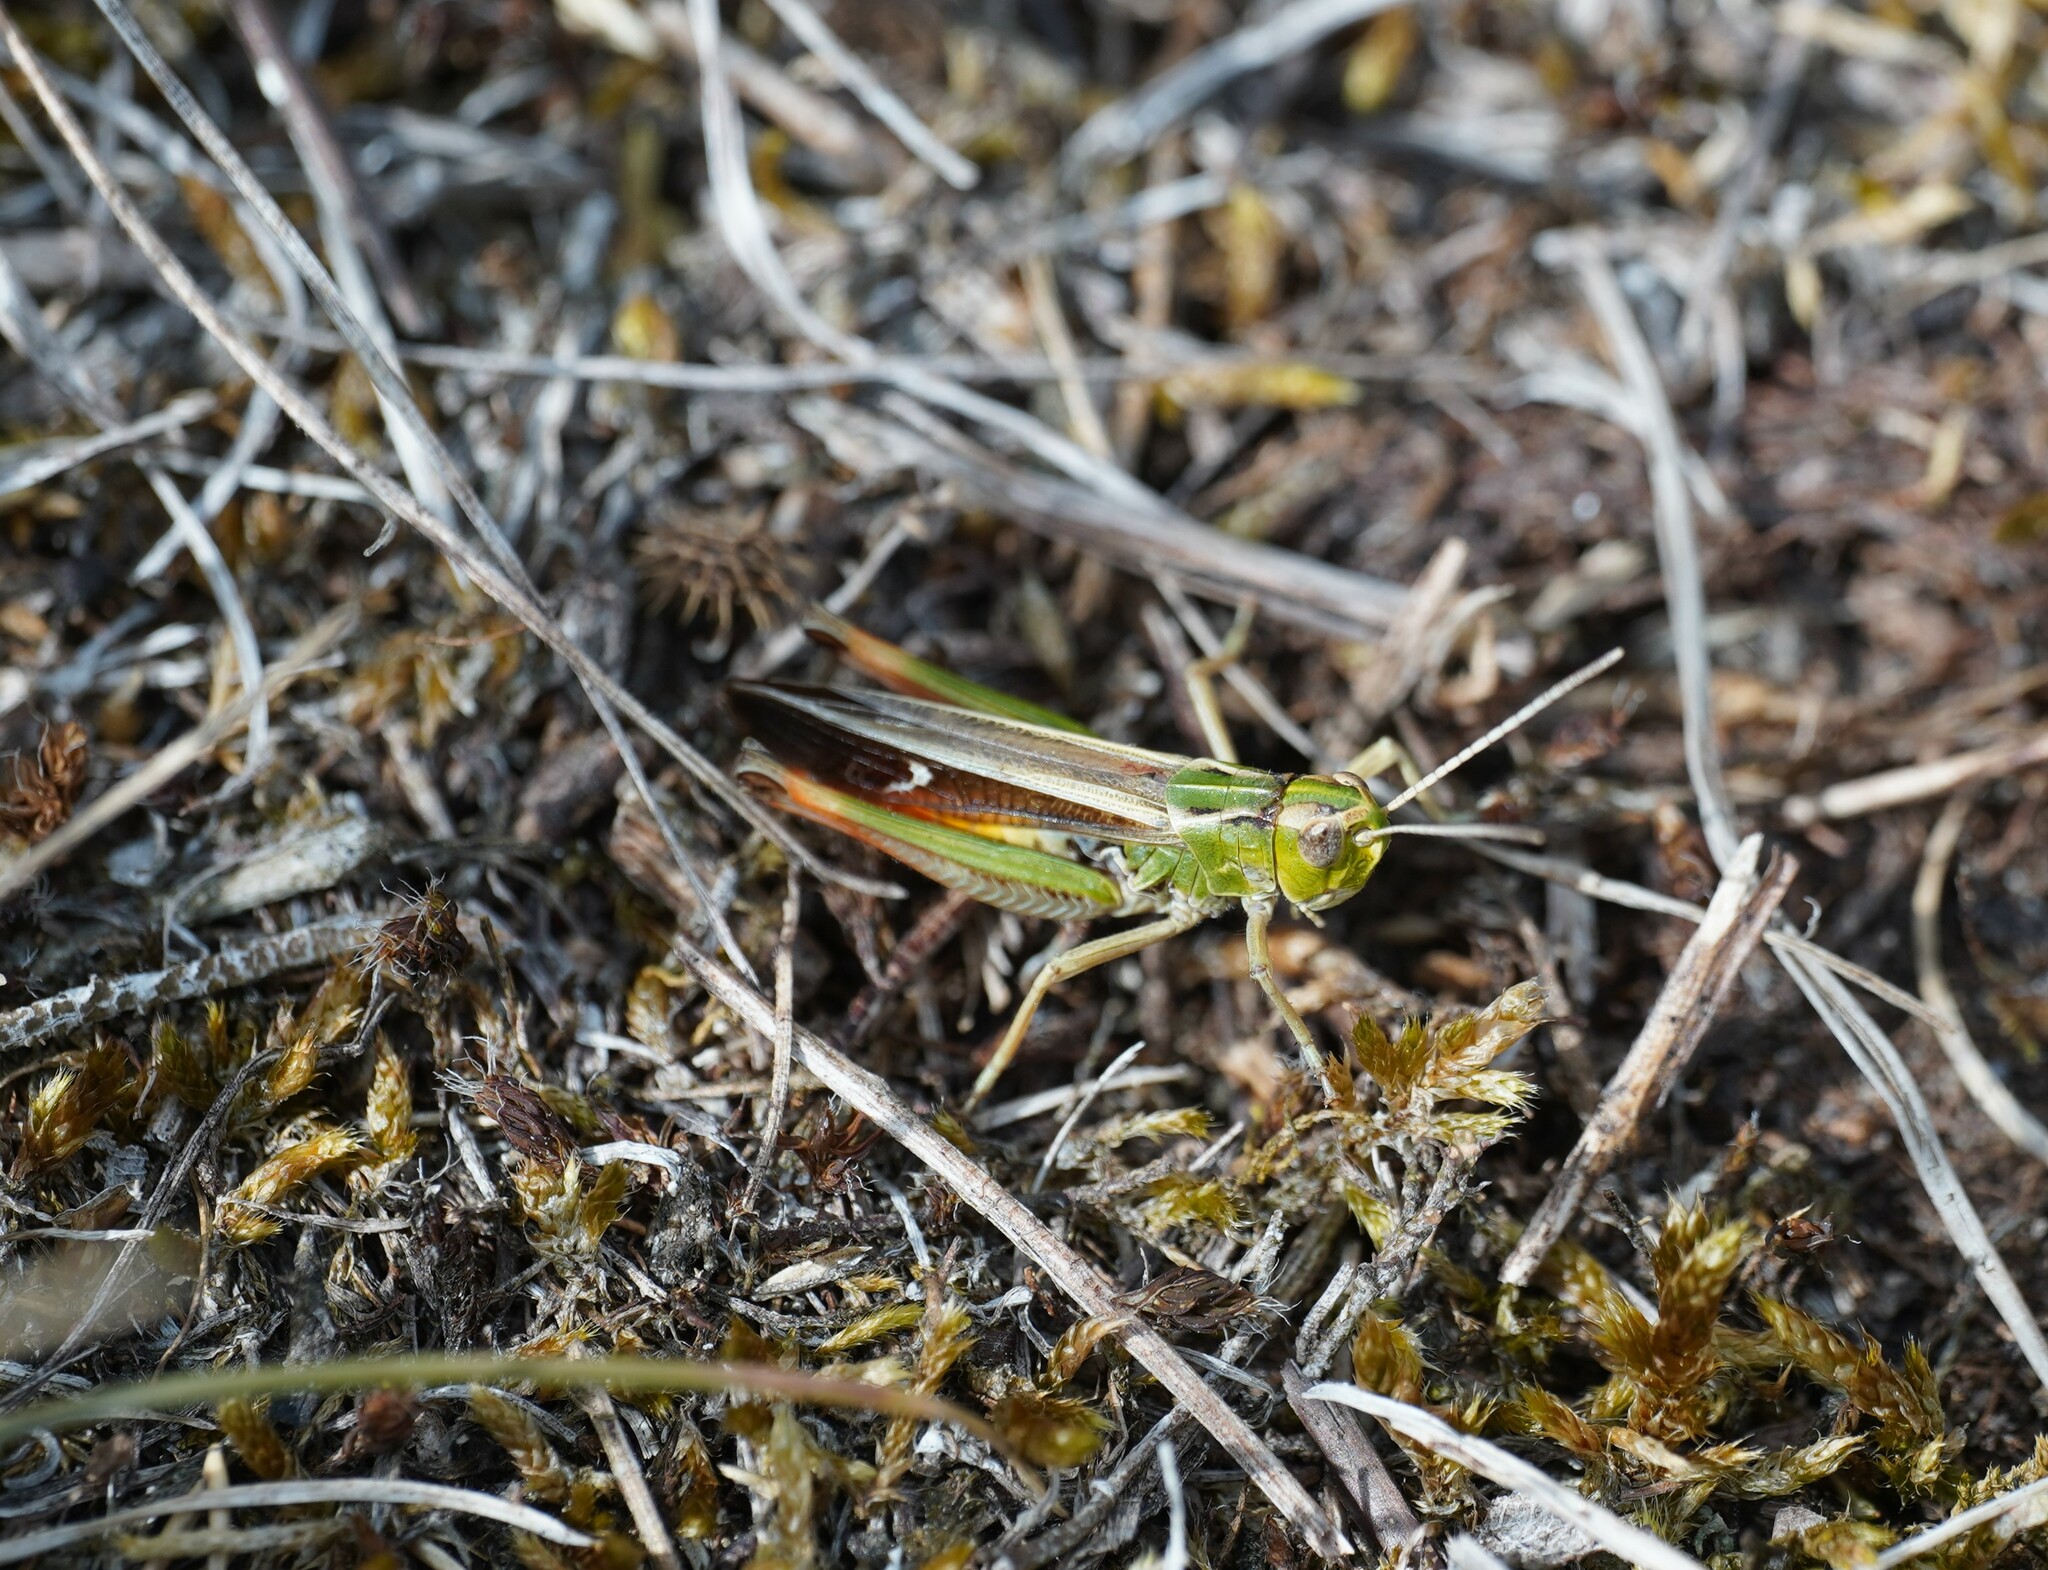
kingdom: Animalia
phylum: Arthropoda
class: Insecta
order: Orthoptera
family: Acrididae
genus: Stenobothrus
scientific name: Stenobothrus lineatus
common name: Stripe-winged grasshopper
